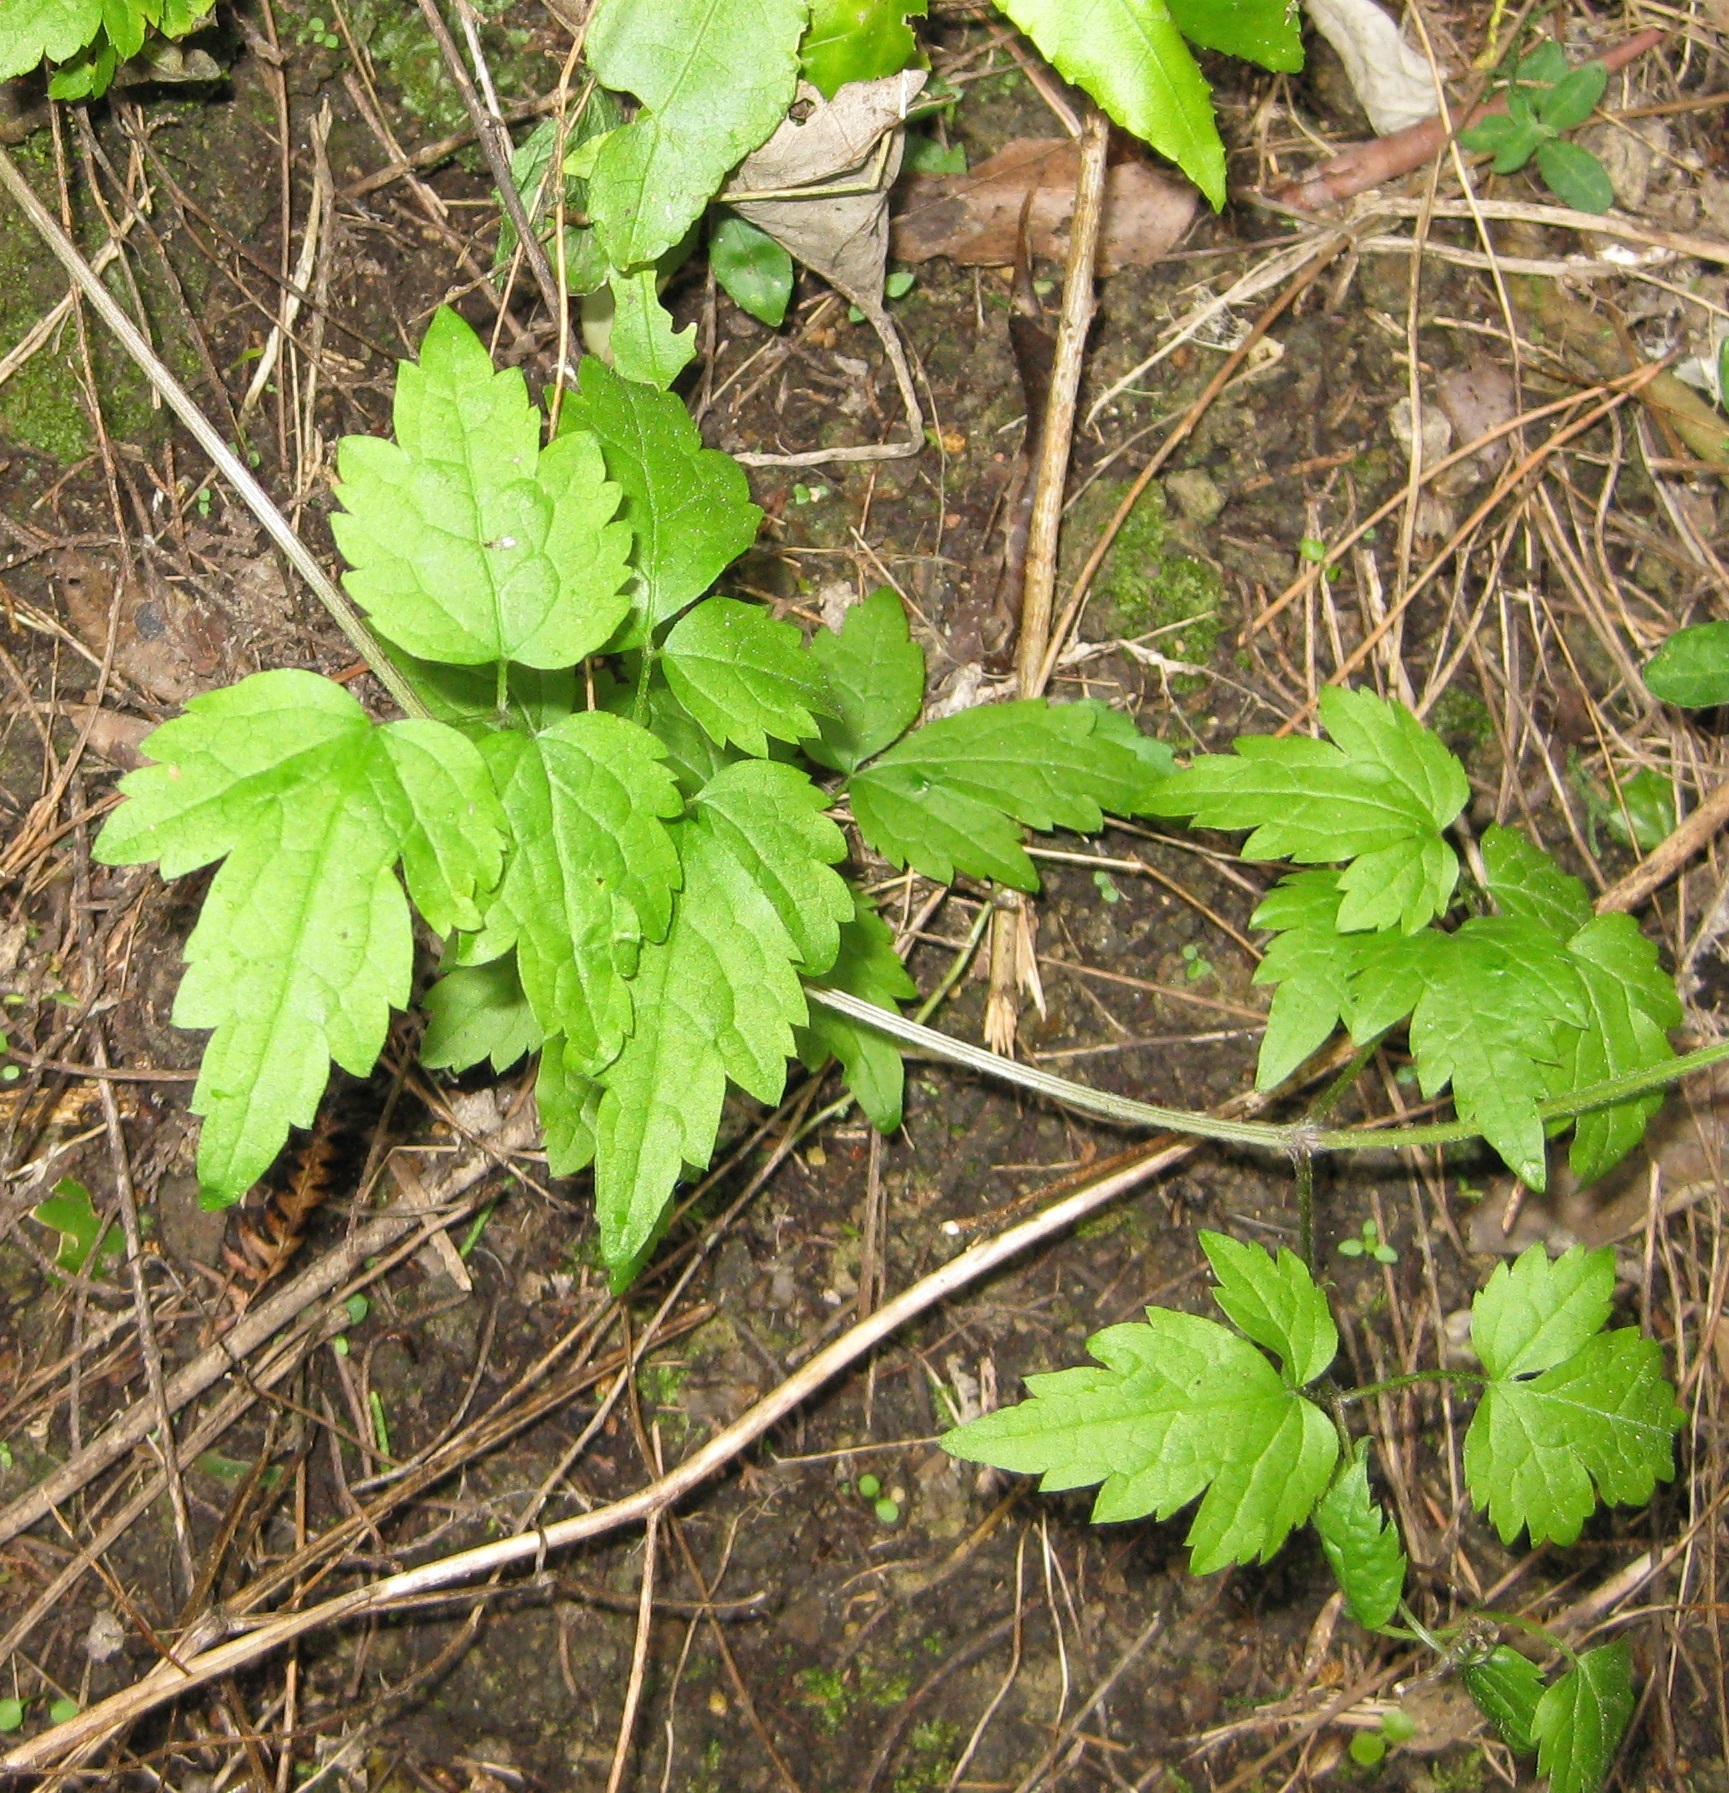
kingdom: Plantae
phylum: Tracheophyta
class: Magnoliopsida
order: Ranunculales
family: Ranunculaceae
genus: Clematis
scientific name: Clematis vitalba
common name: Evergreen clematis
